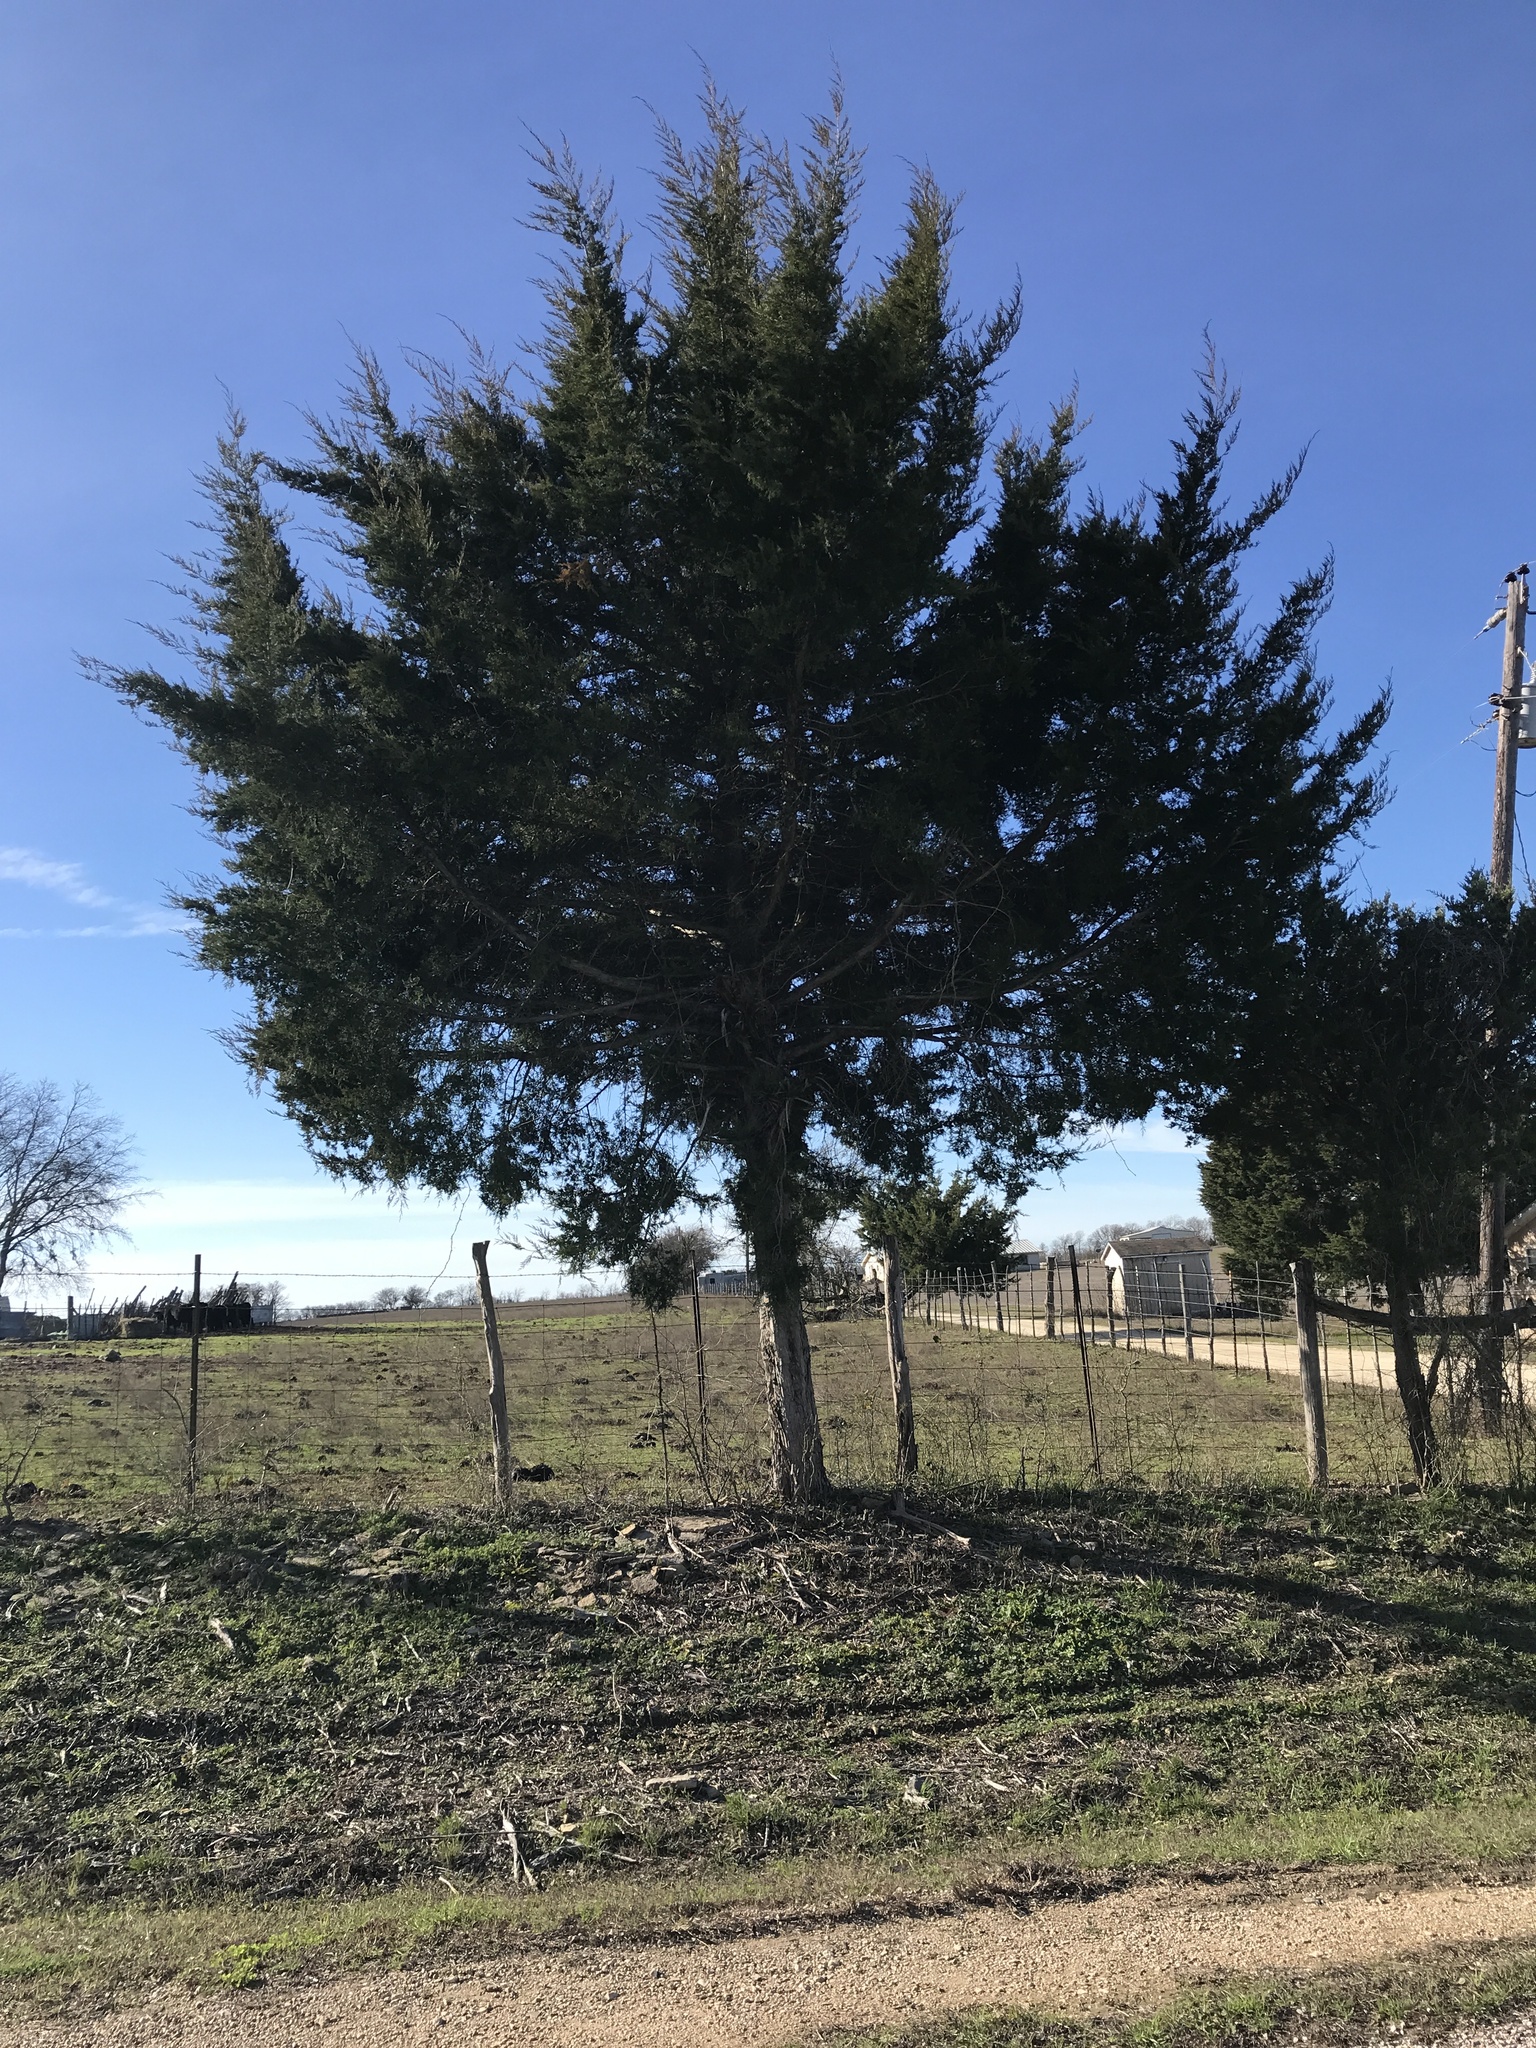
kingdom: Plantae
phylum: Tracheophyta
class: Pinopsida
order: Pinales
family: Cupressaceae
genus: Juniperus
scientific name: Juniperus virginiana
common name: Red juniper
